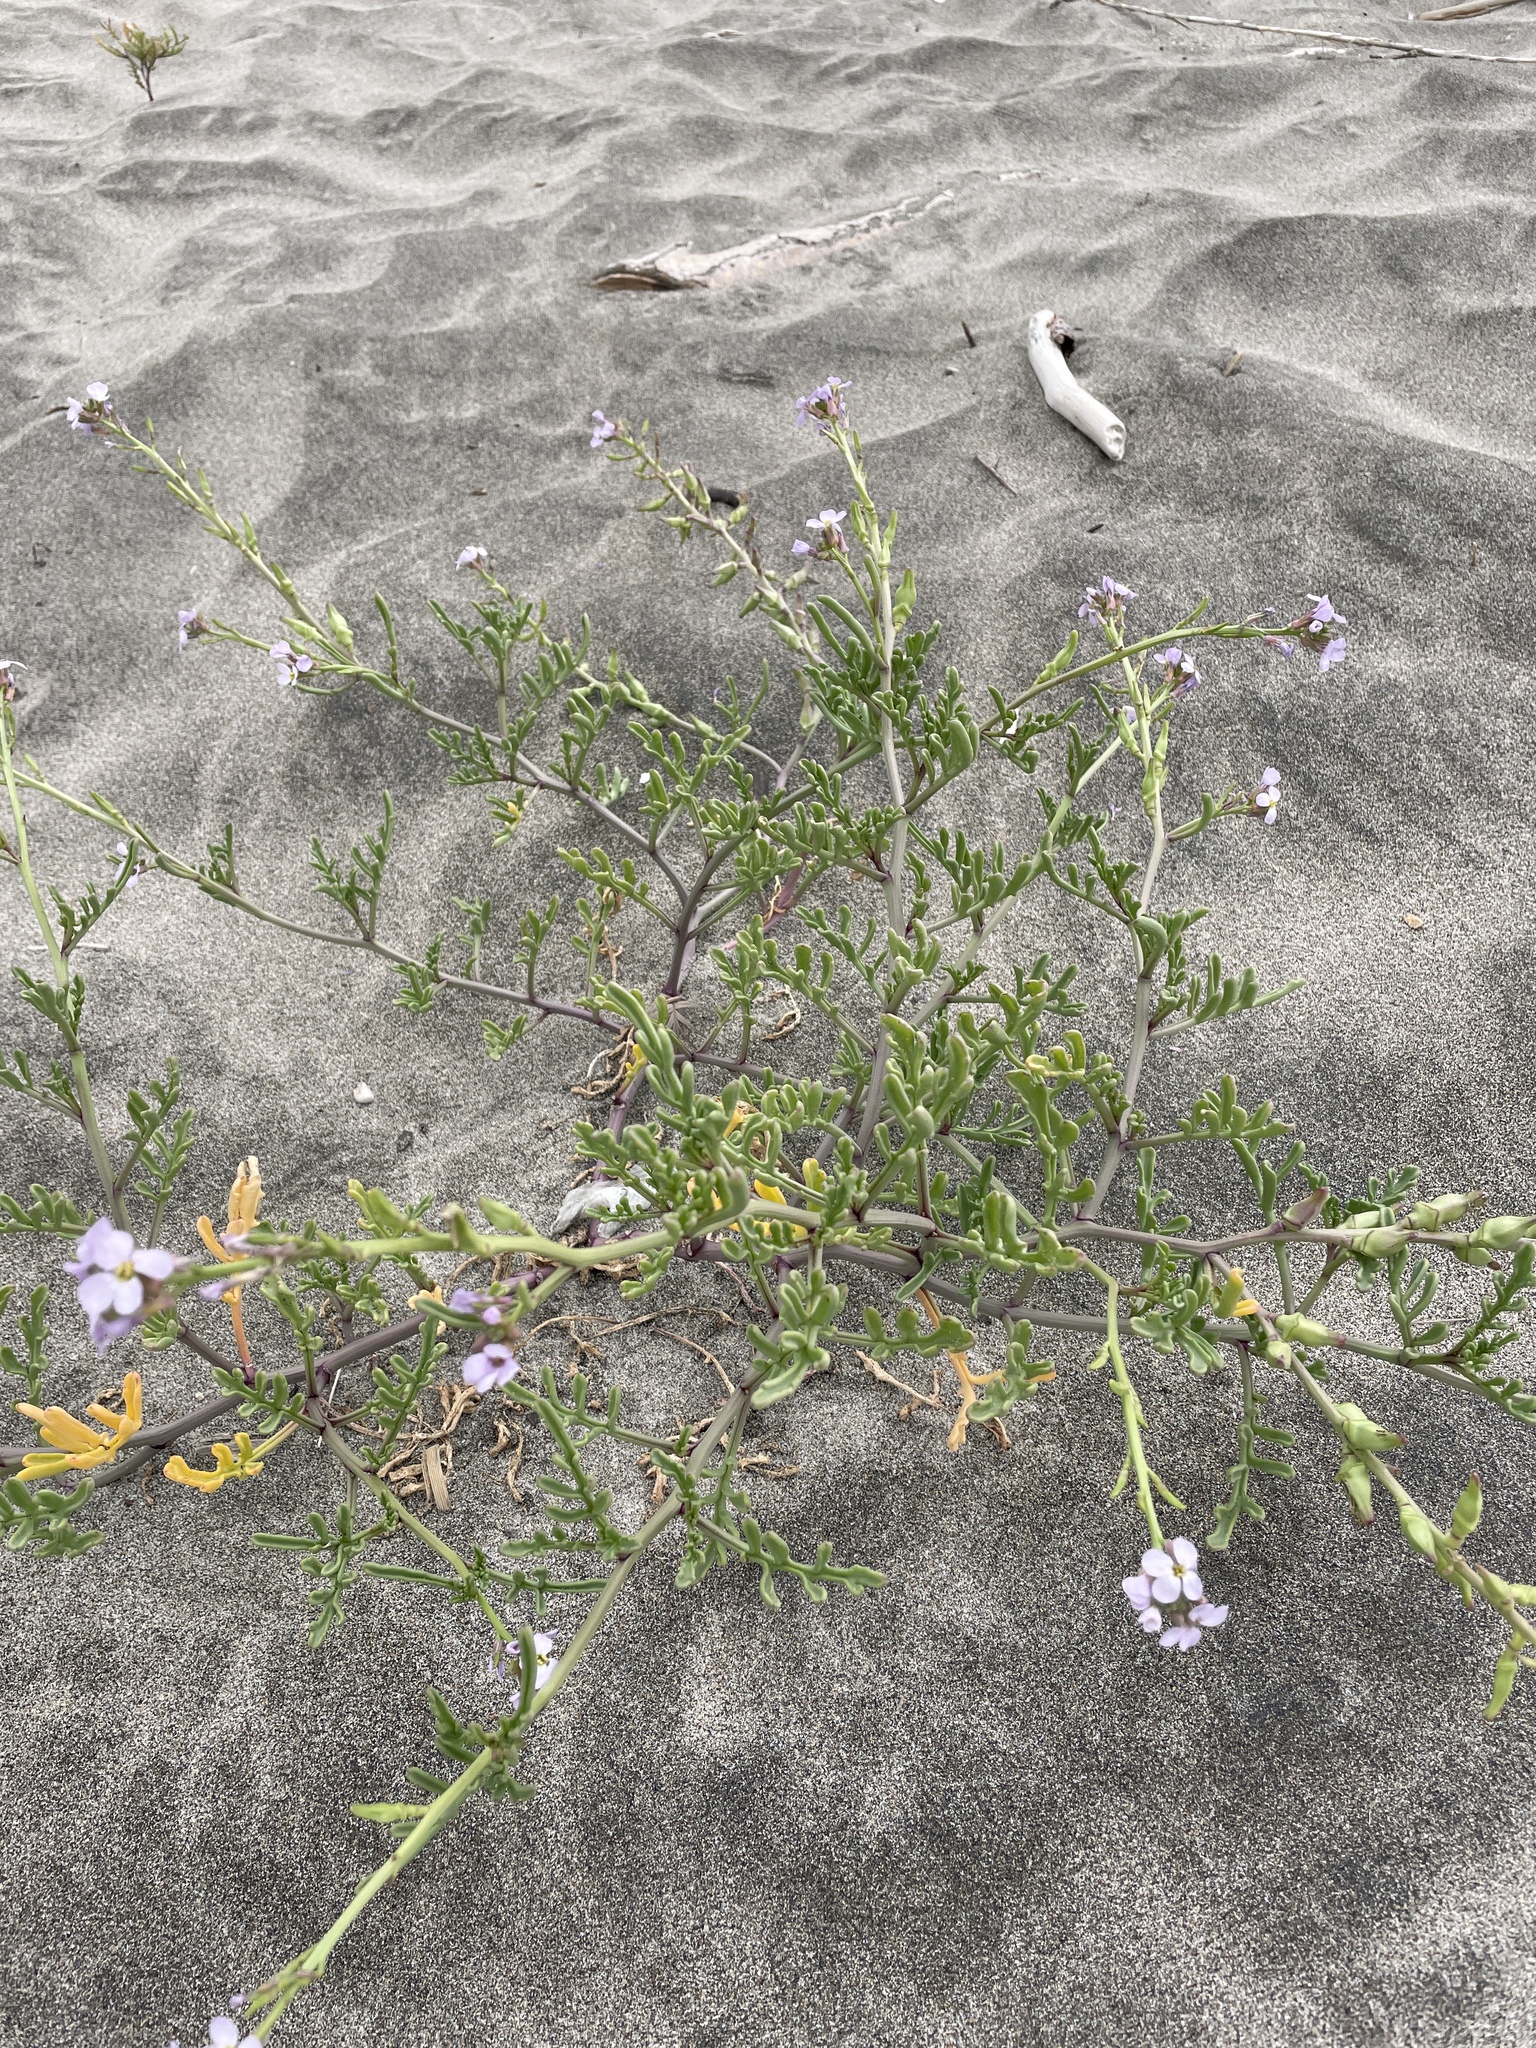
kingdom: Plantae
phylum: Tracheophyta
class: Magnoliopsida
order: Brassicales
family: Brassicaceae
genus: Cakile
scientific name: Cakile maritima
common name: Sea rocket
